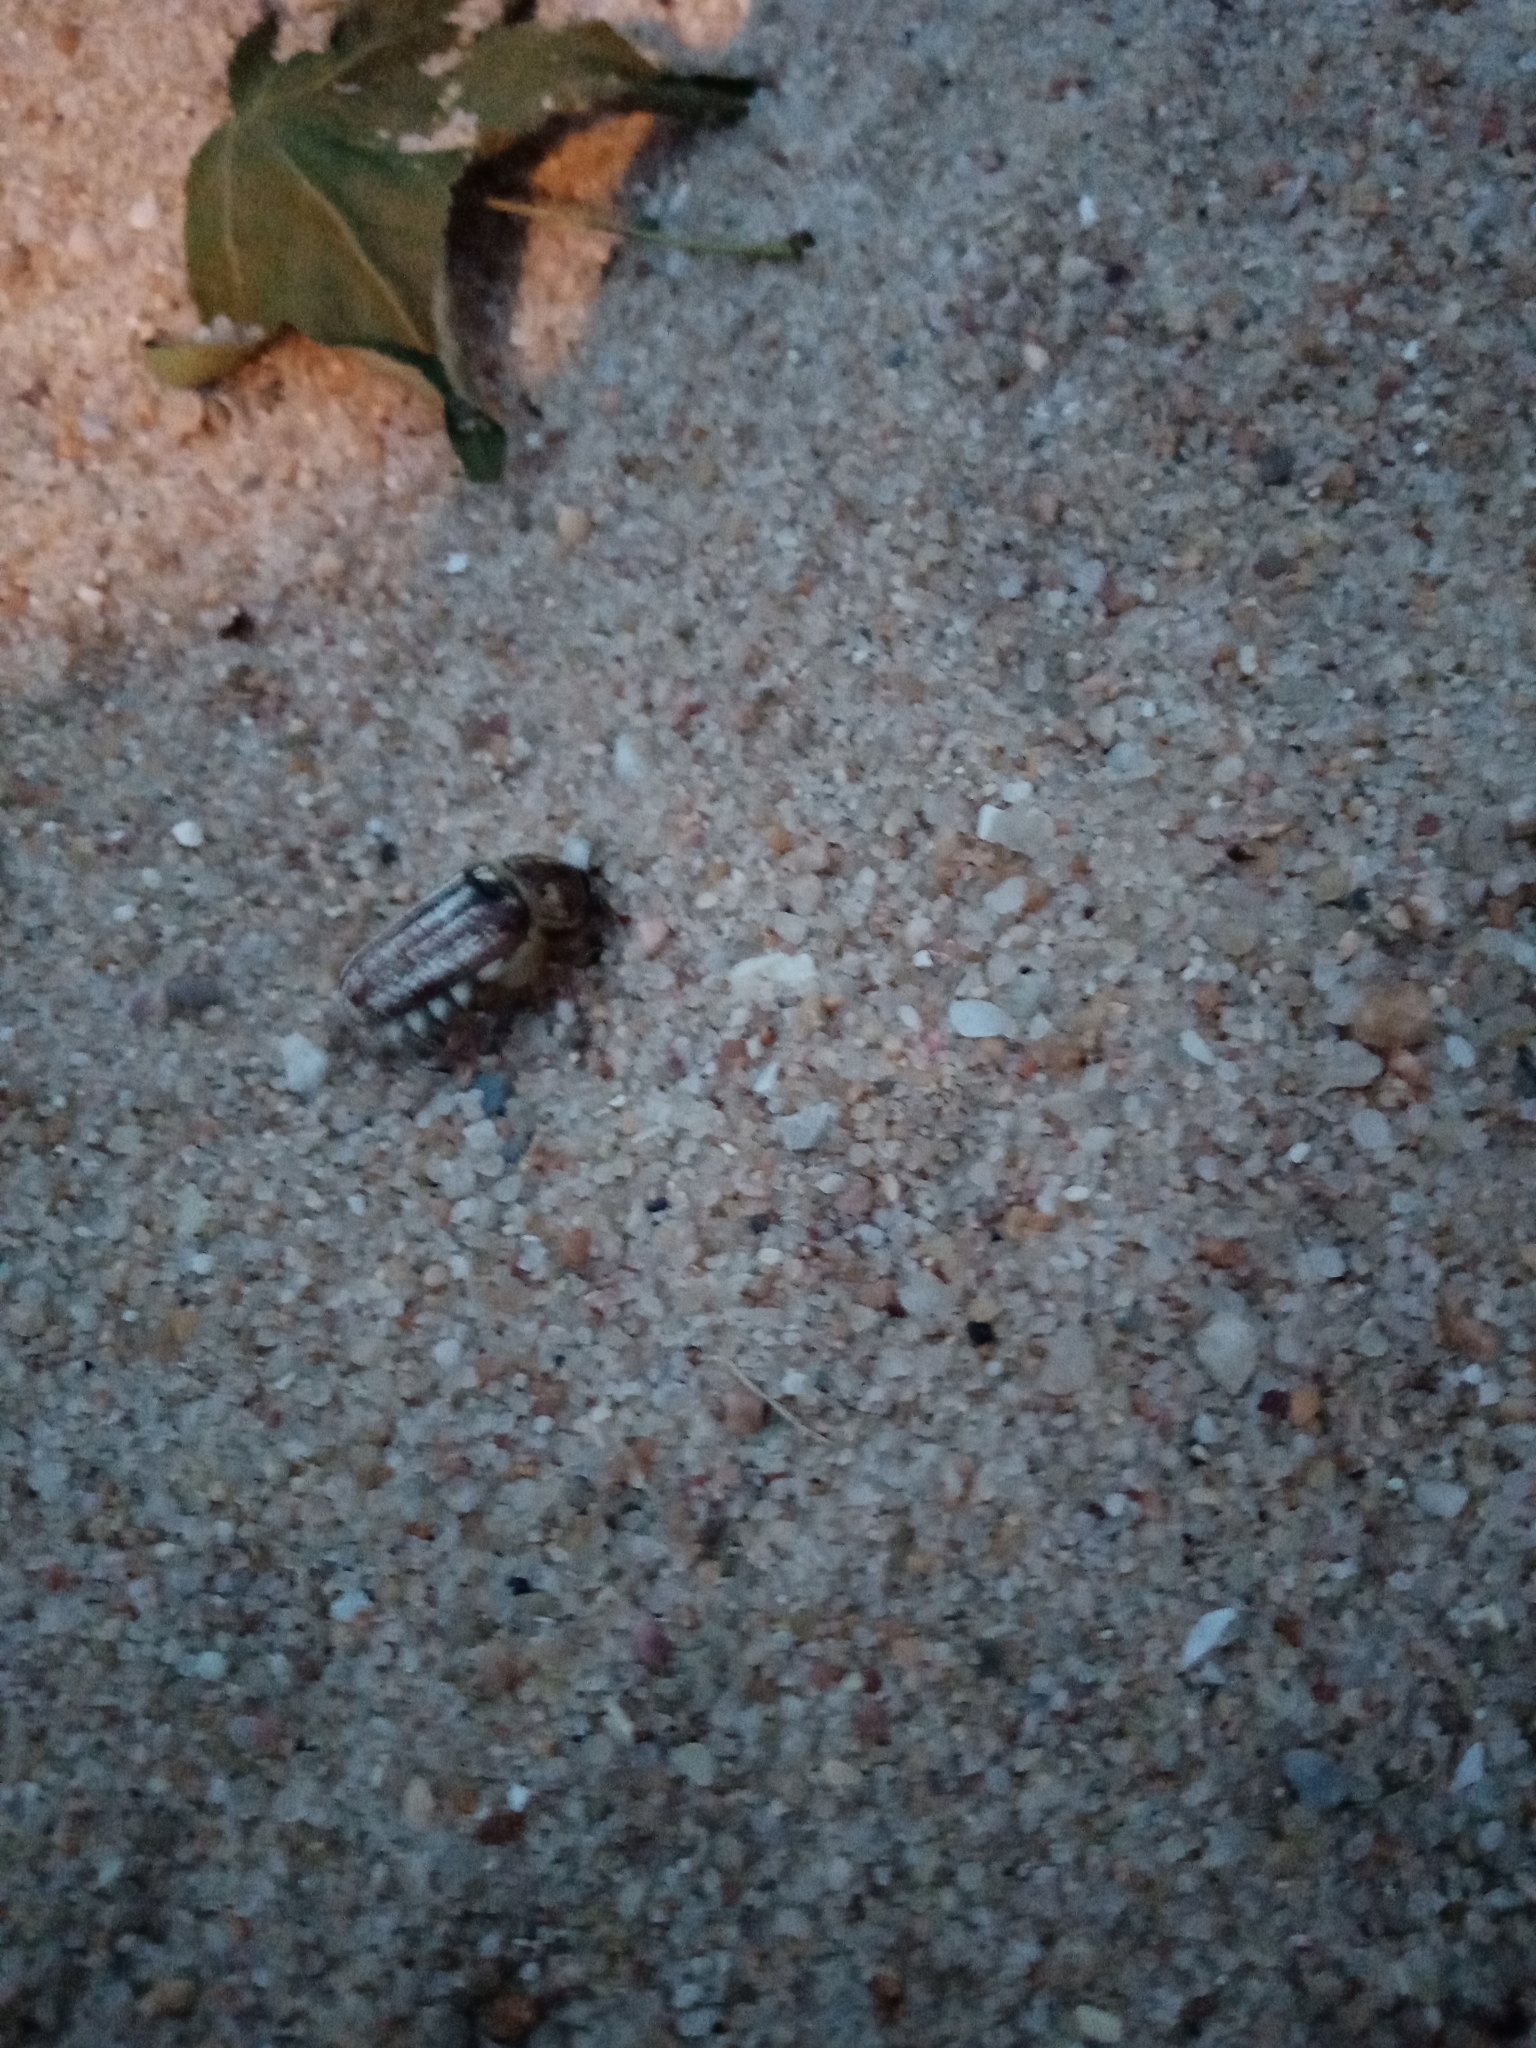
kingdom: Animalia
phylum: Arthropoda
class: Insecta
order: Coleoptera
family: Scarabaeidae
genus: Anoxia
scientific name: Anoxia australis
